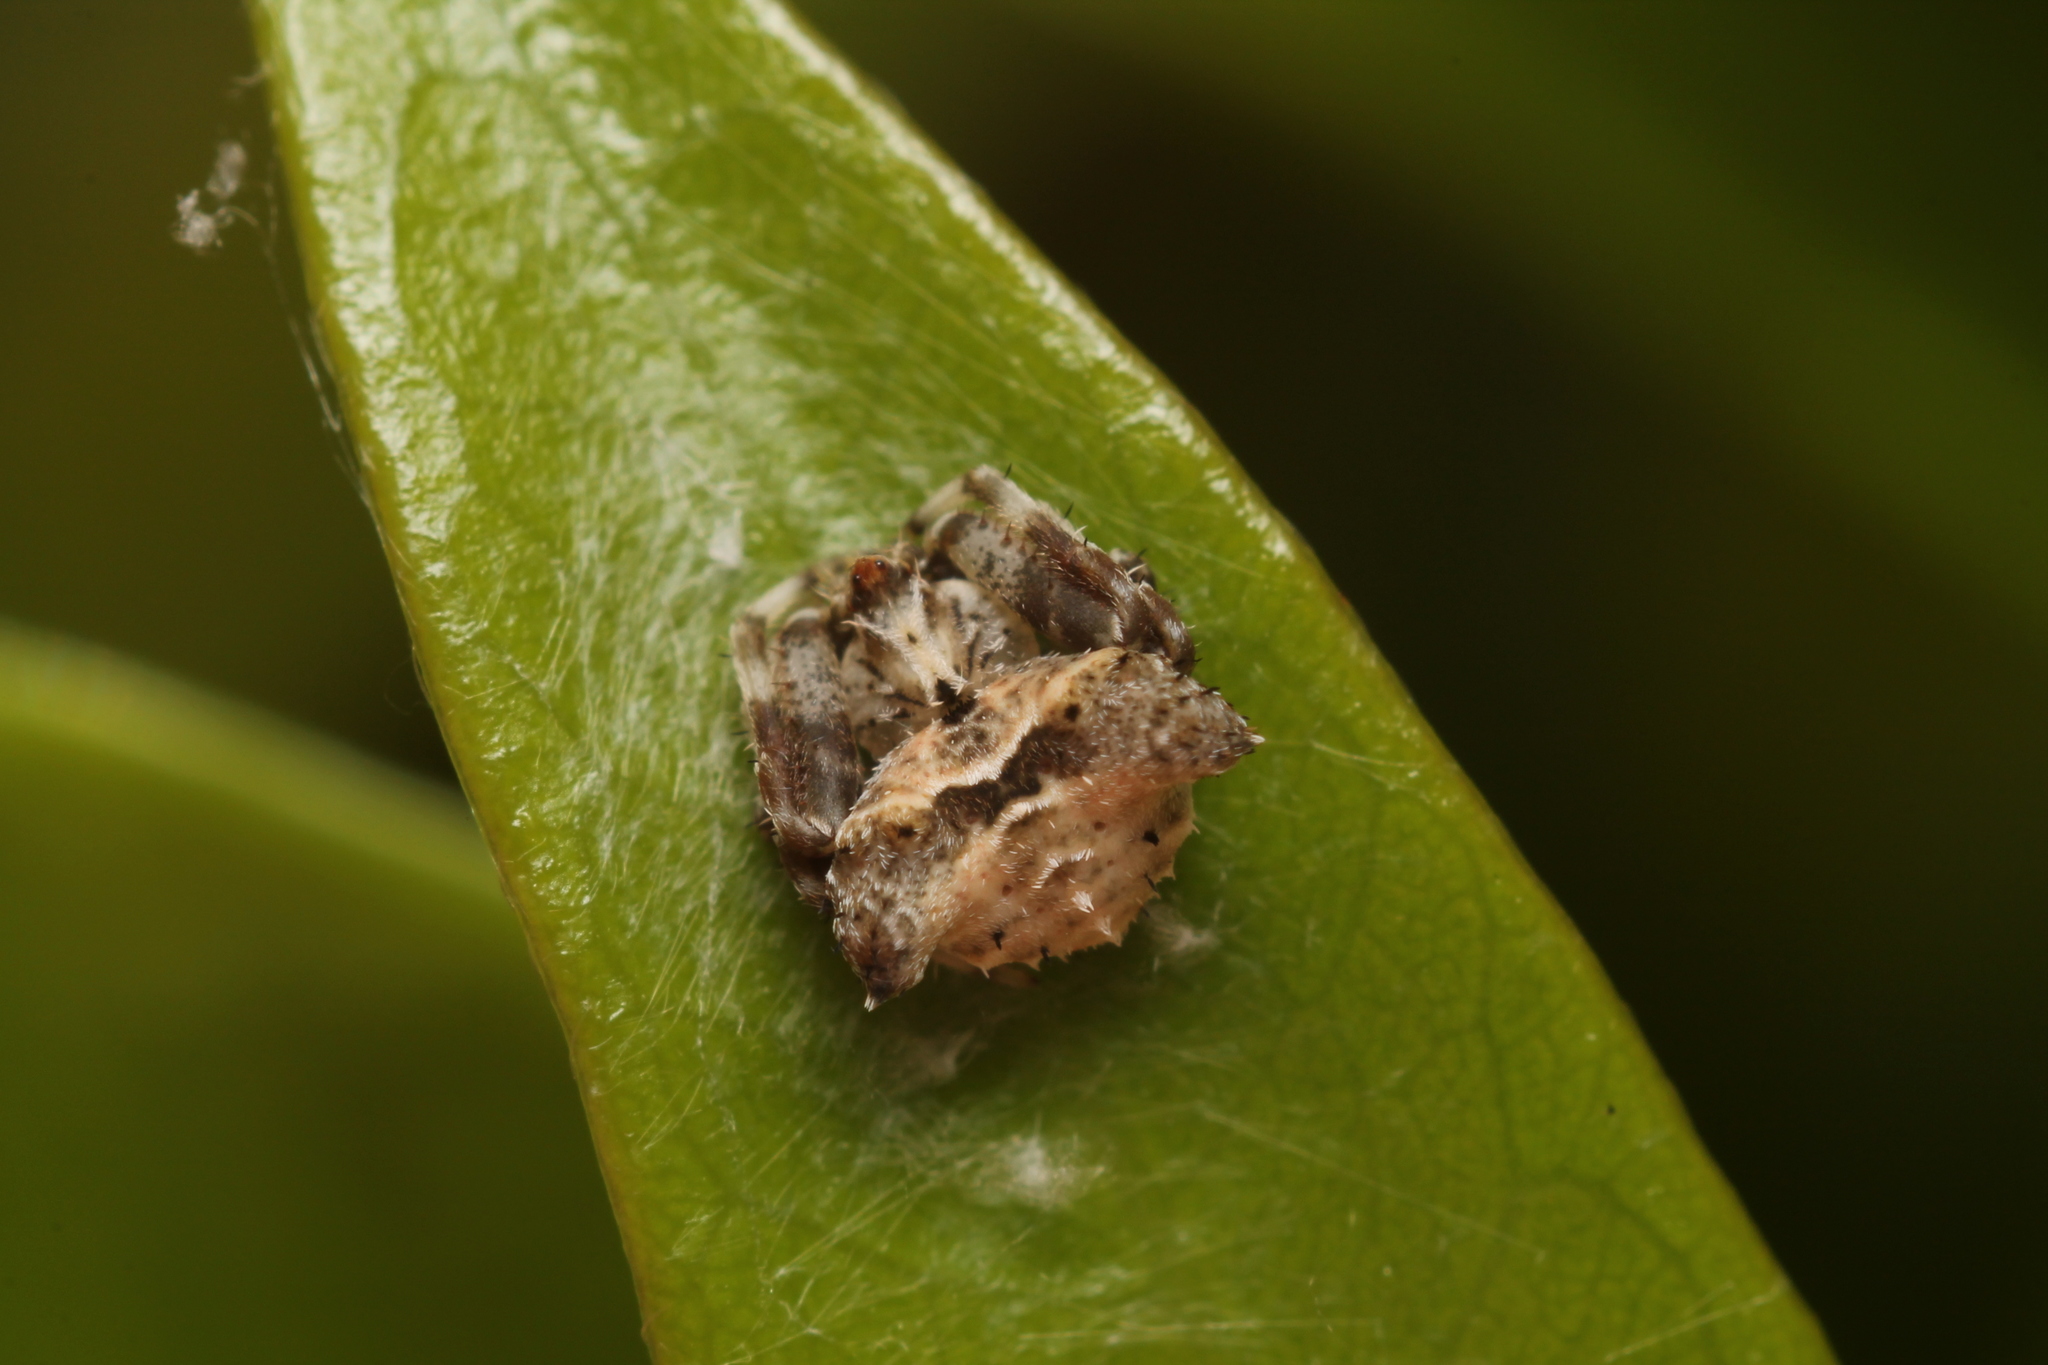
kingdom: Animalia
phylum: Arthropoda
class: Arachnida
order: Araneae
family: Araneidae
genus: Celaenia
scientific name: Celaenia olivacea
